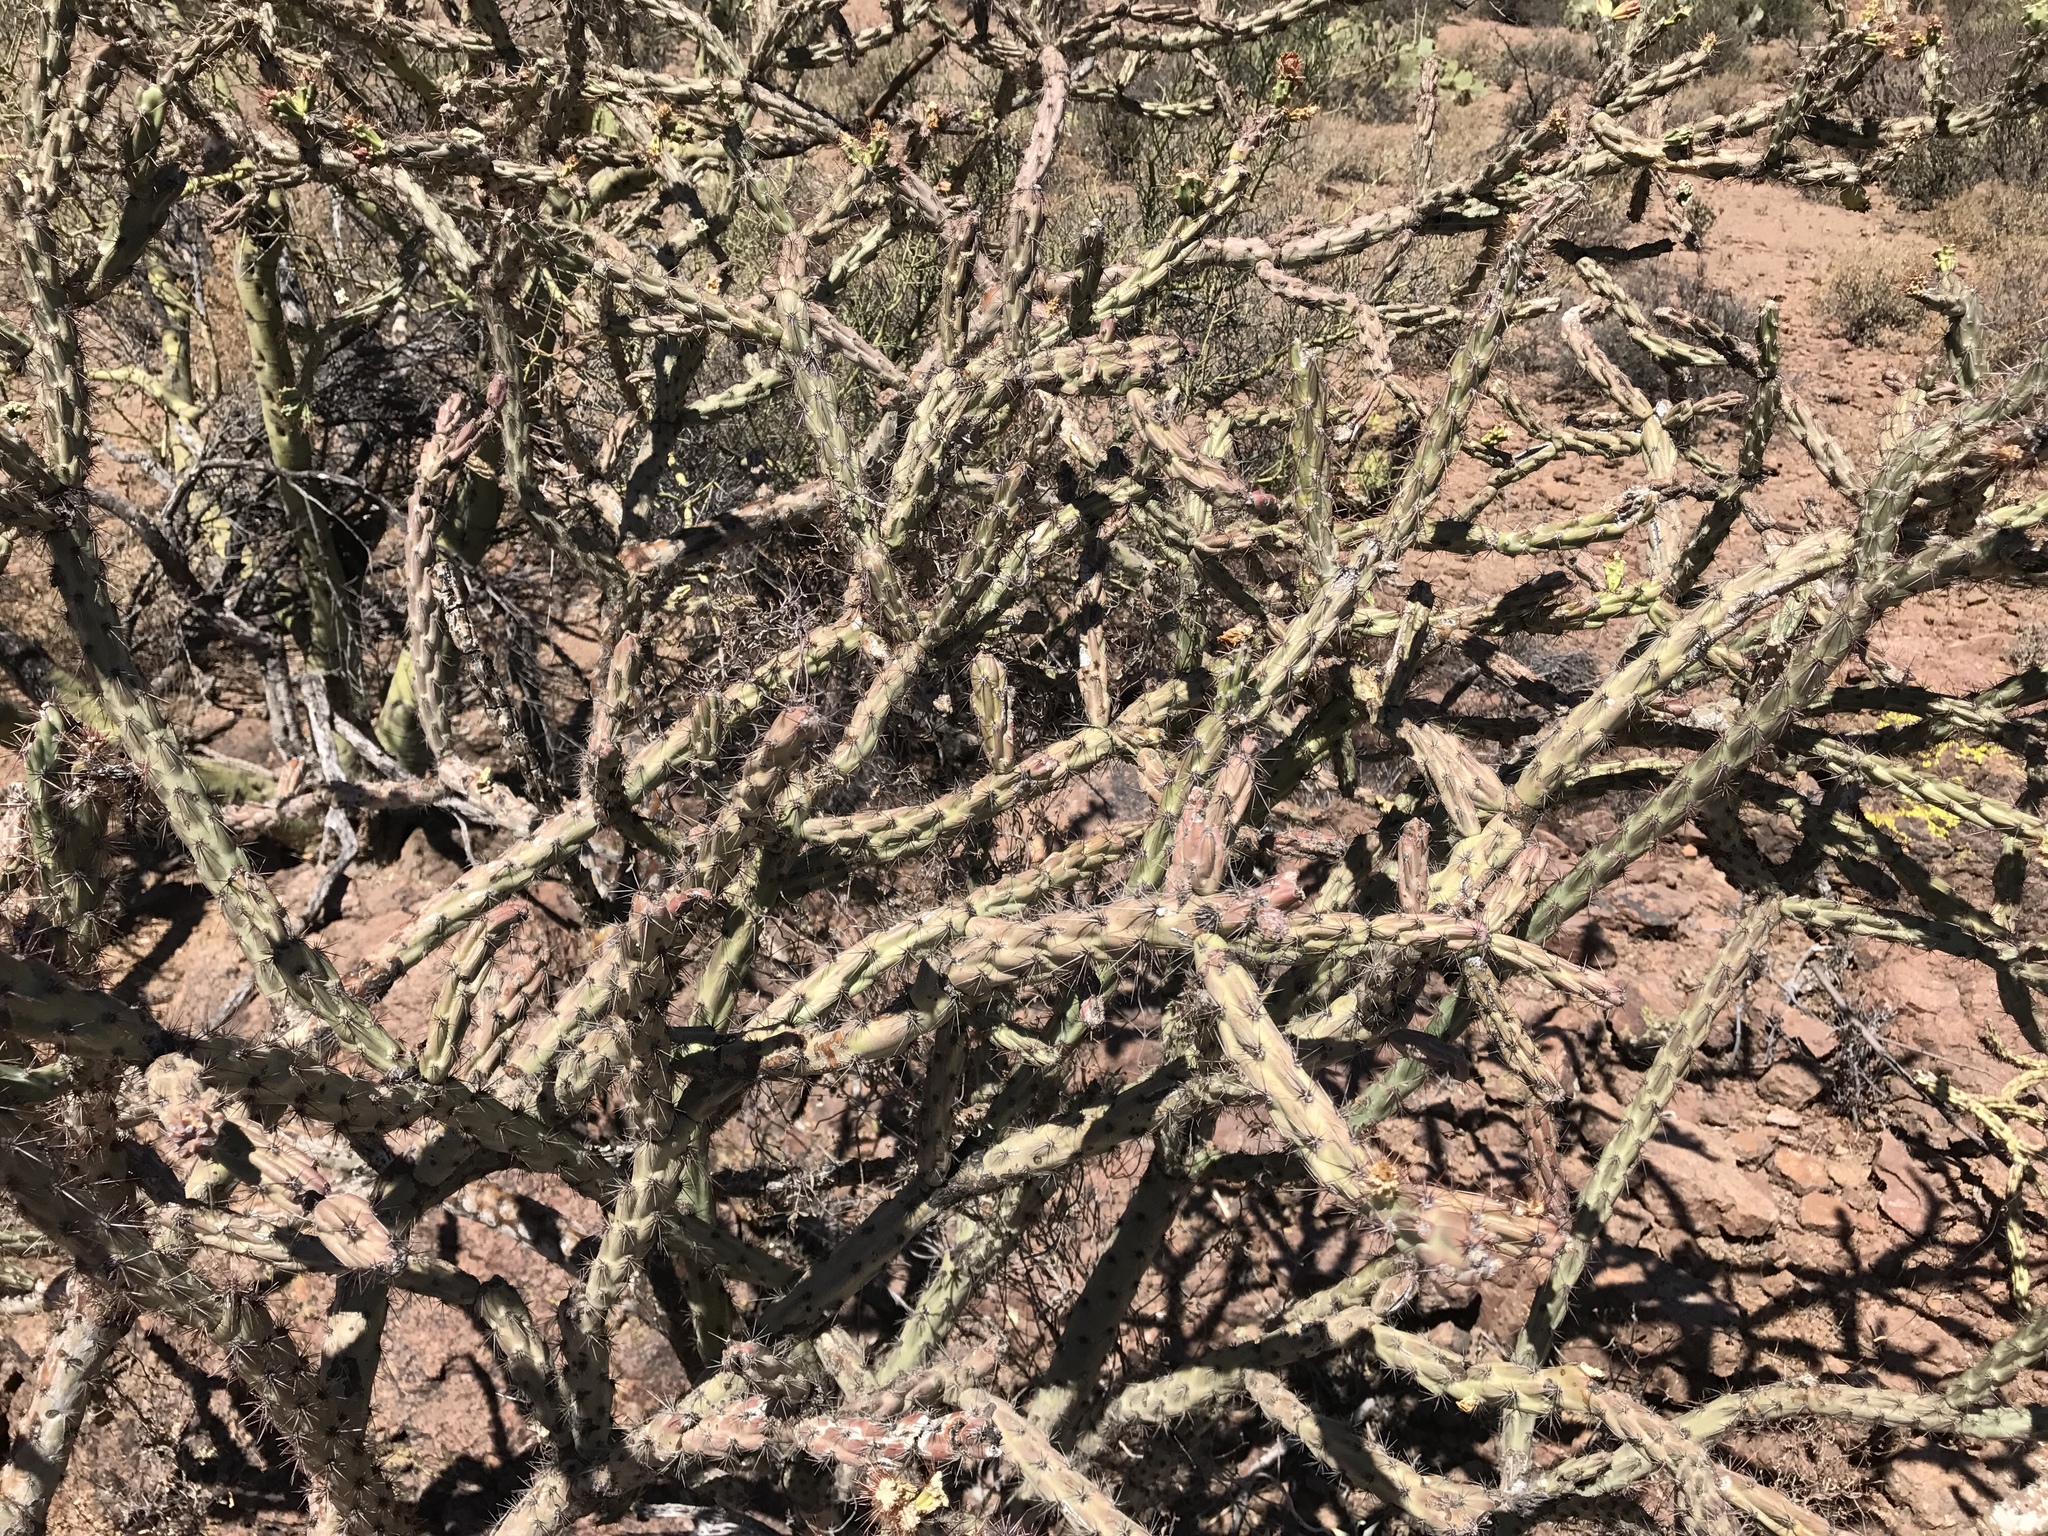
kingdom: Plantae
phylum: Tracheophyta
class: Magnoliopsida
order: Caryophyllales
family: Cactaceae
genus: Cylindropuntia
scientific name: Cylindropuntia imbricata
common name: Candelabrum cactus
